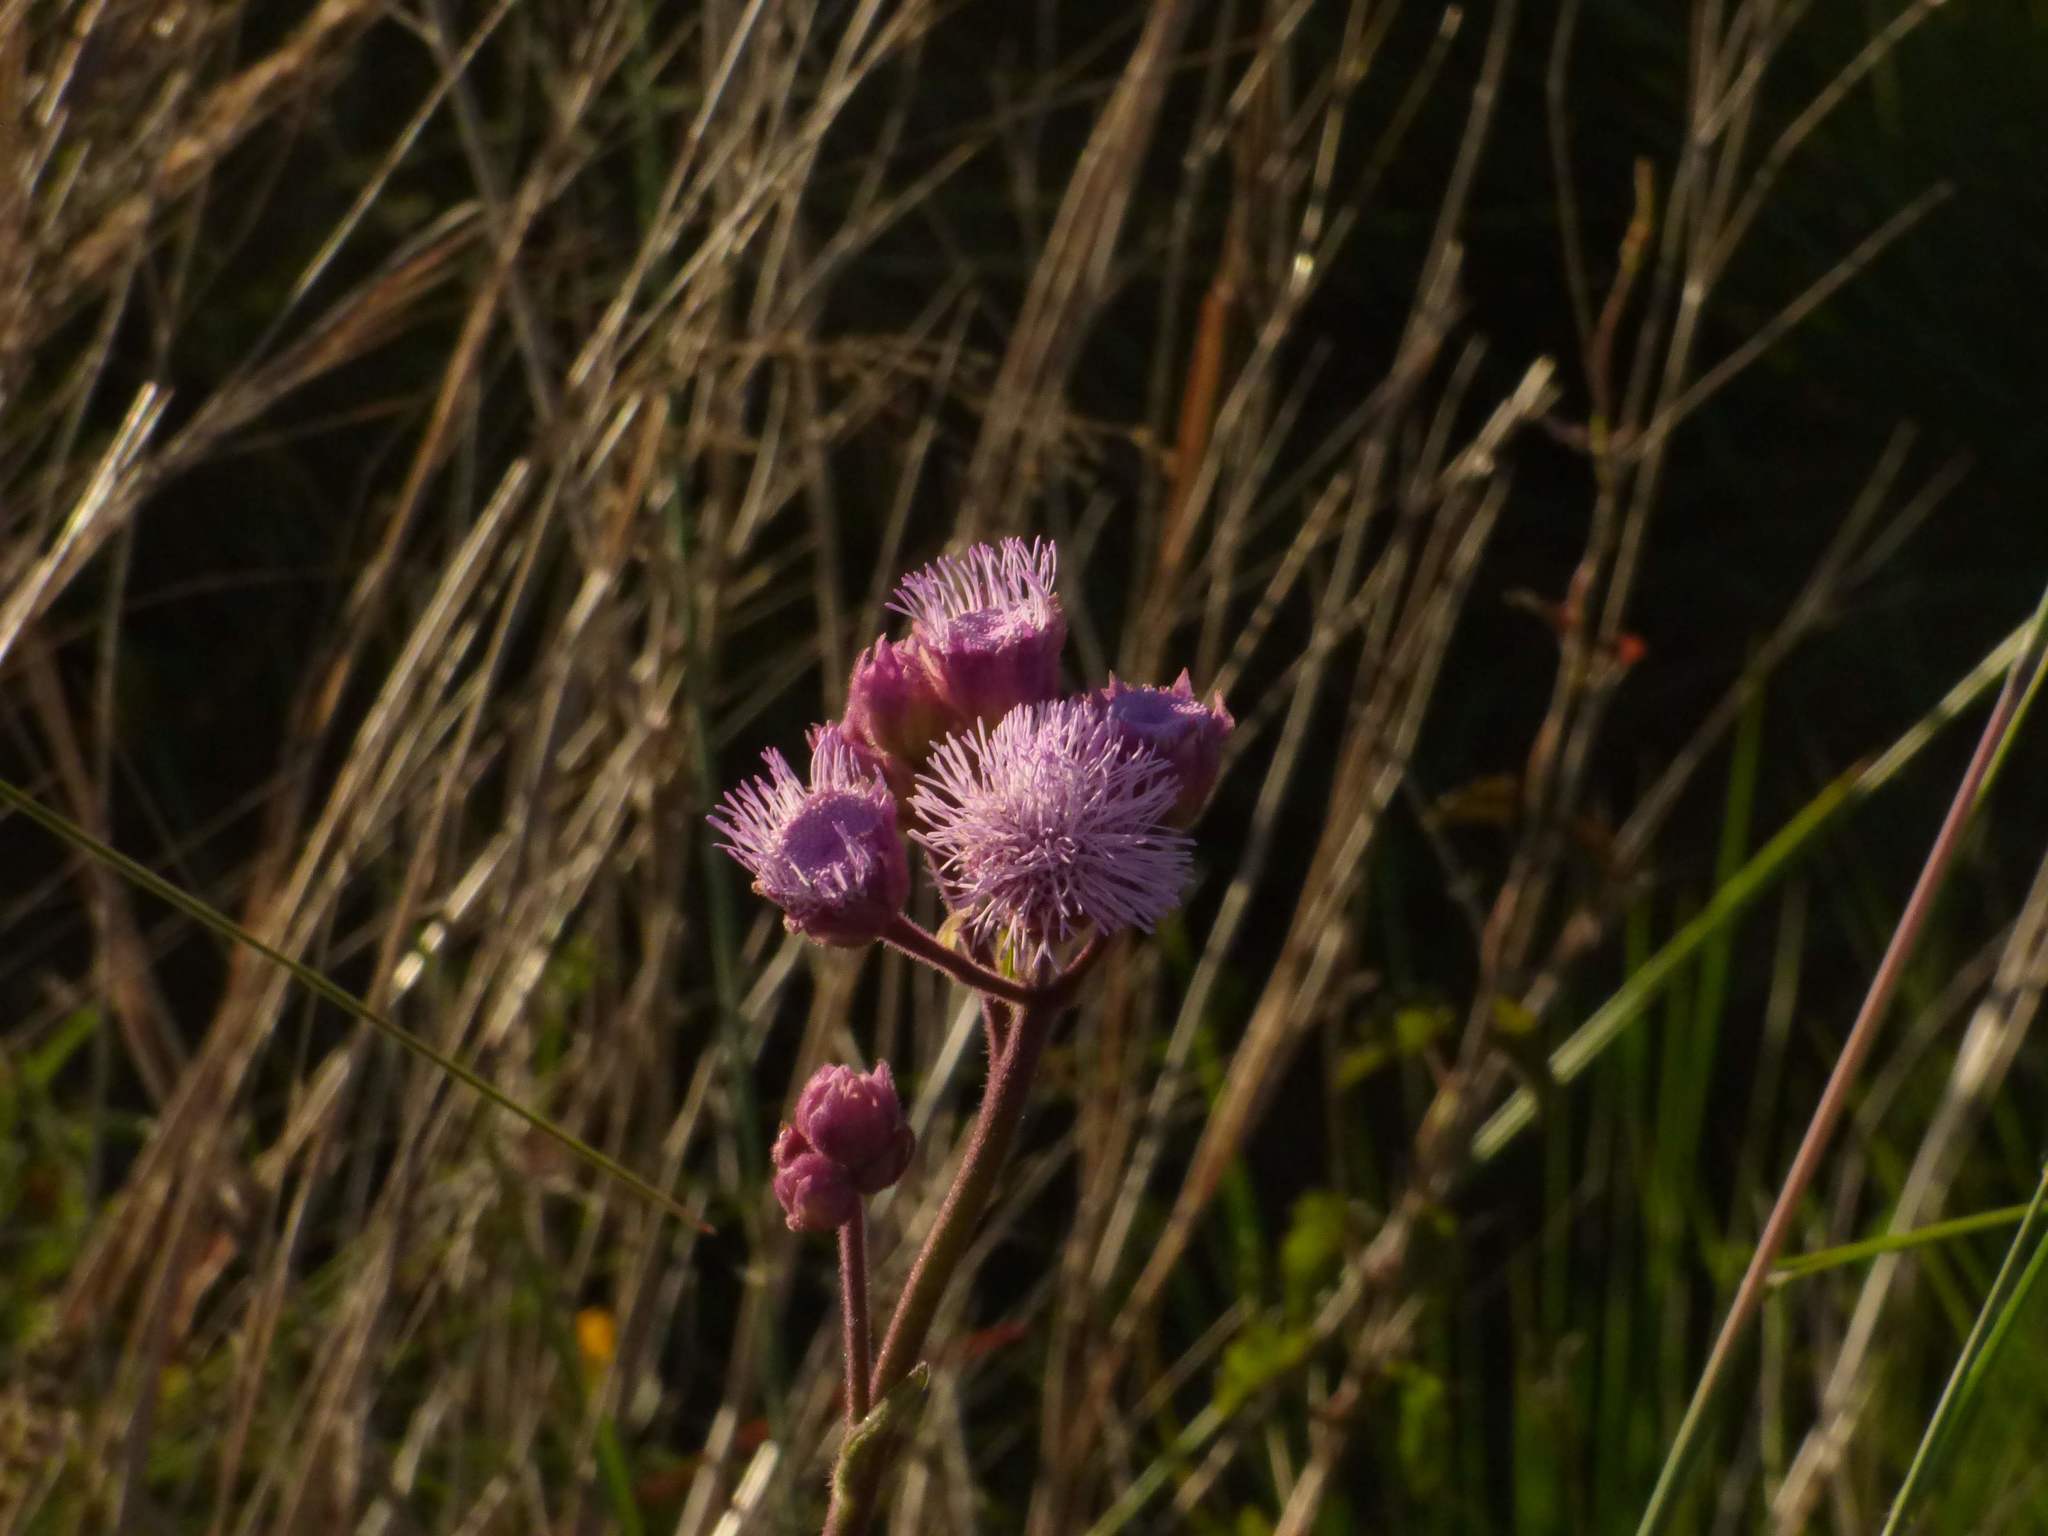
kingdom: Plantae
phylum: Tracheophyta
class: Magnoliopsida
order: Asterales
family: Asteraceae
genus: Campuloclinium
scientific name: Campuloclinium macrocephalum
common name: Pompomweed
